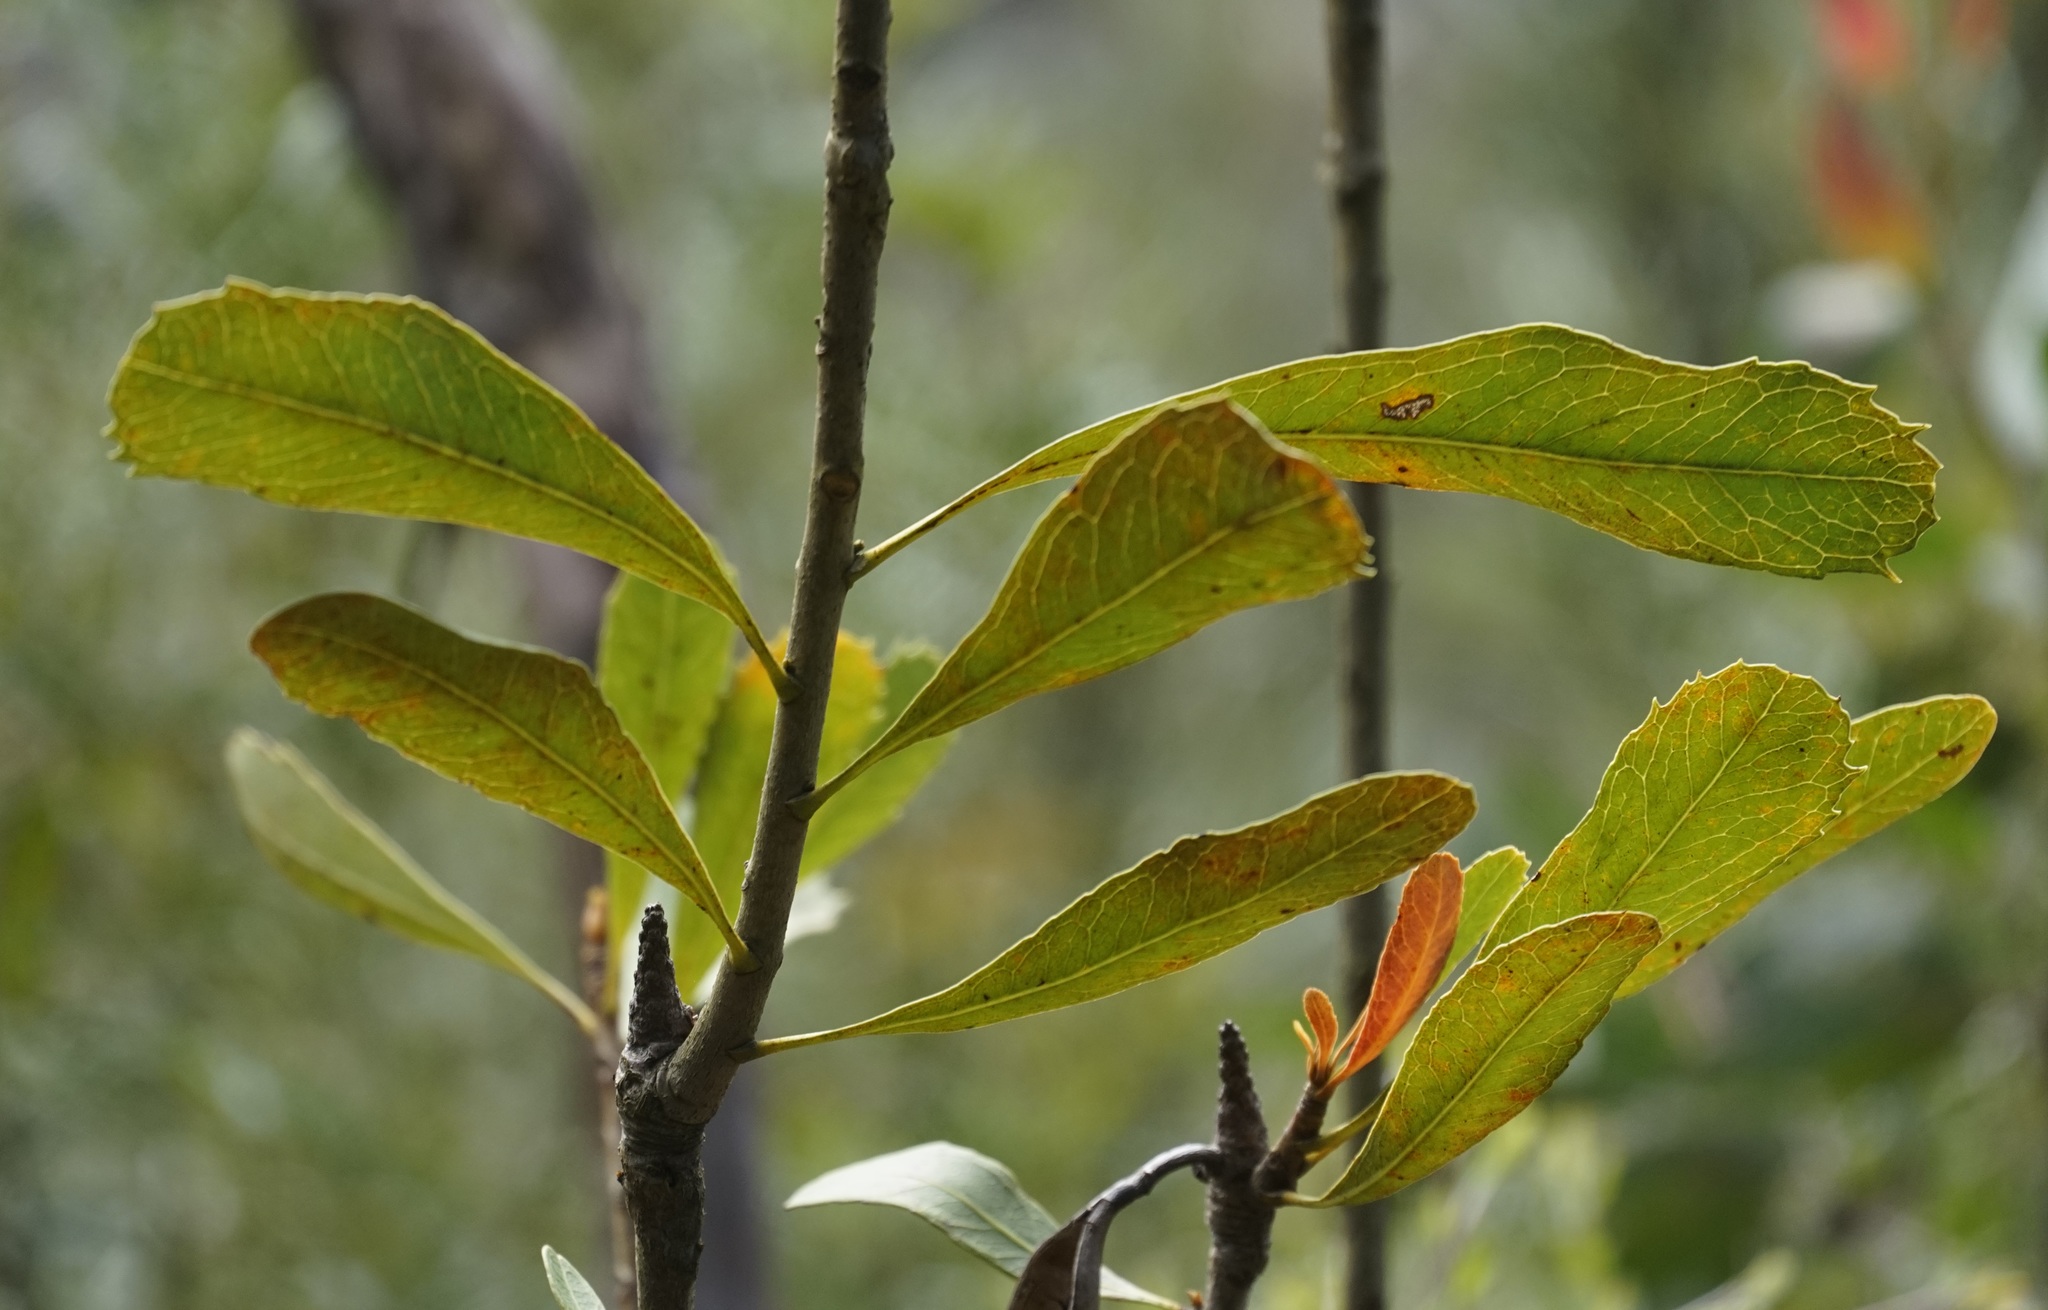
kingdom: Plantae
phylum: Tracheophyta
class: Magnoliopsida
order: Proteales
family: Proteaceae
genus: Telopea
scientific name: Telopea speciosissima
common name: New south wales waratah
